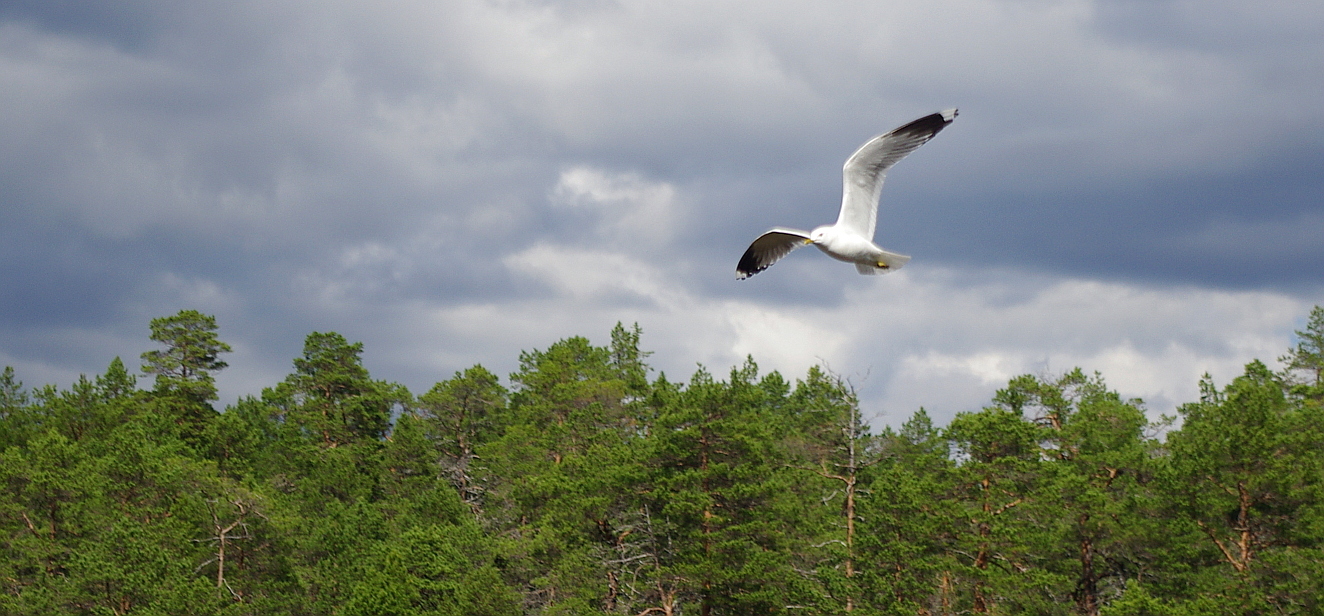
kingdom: Animalia
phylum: Chordata
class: Aves
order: Charadriiformes
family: Laridae
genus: Larus
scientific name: Larus canus
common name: Mew gull
